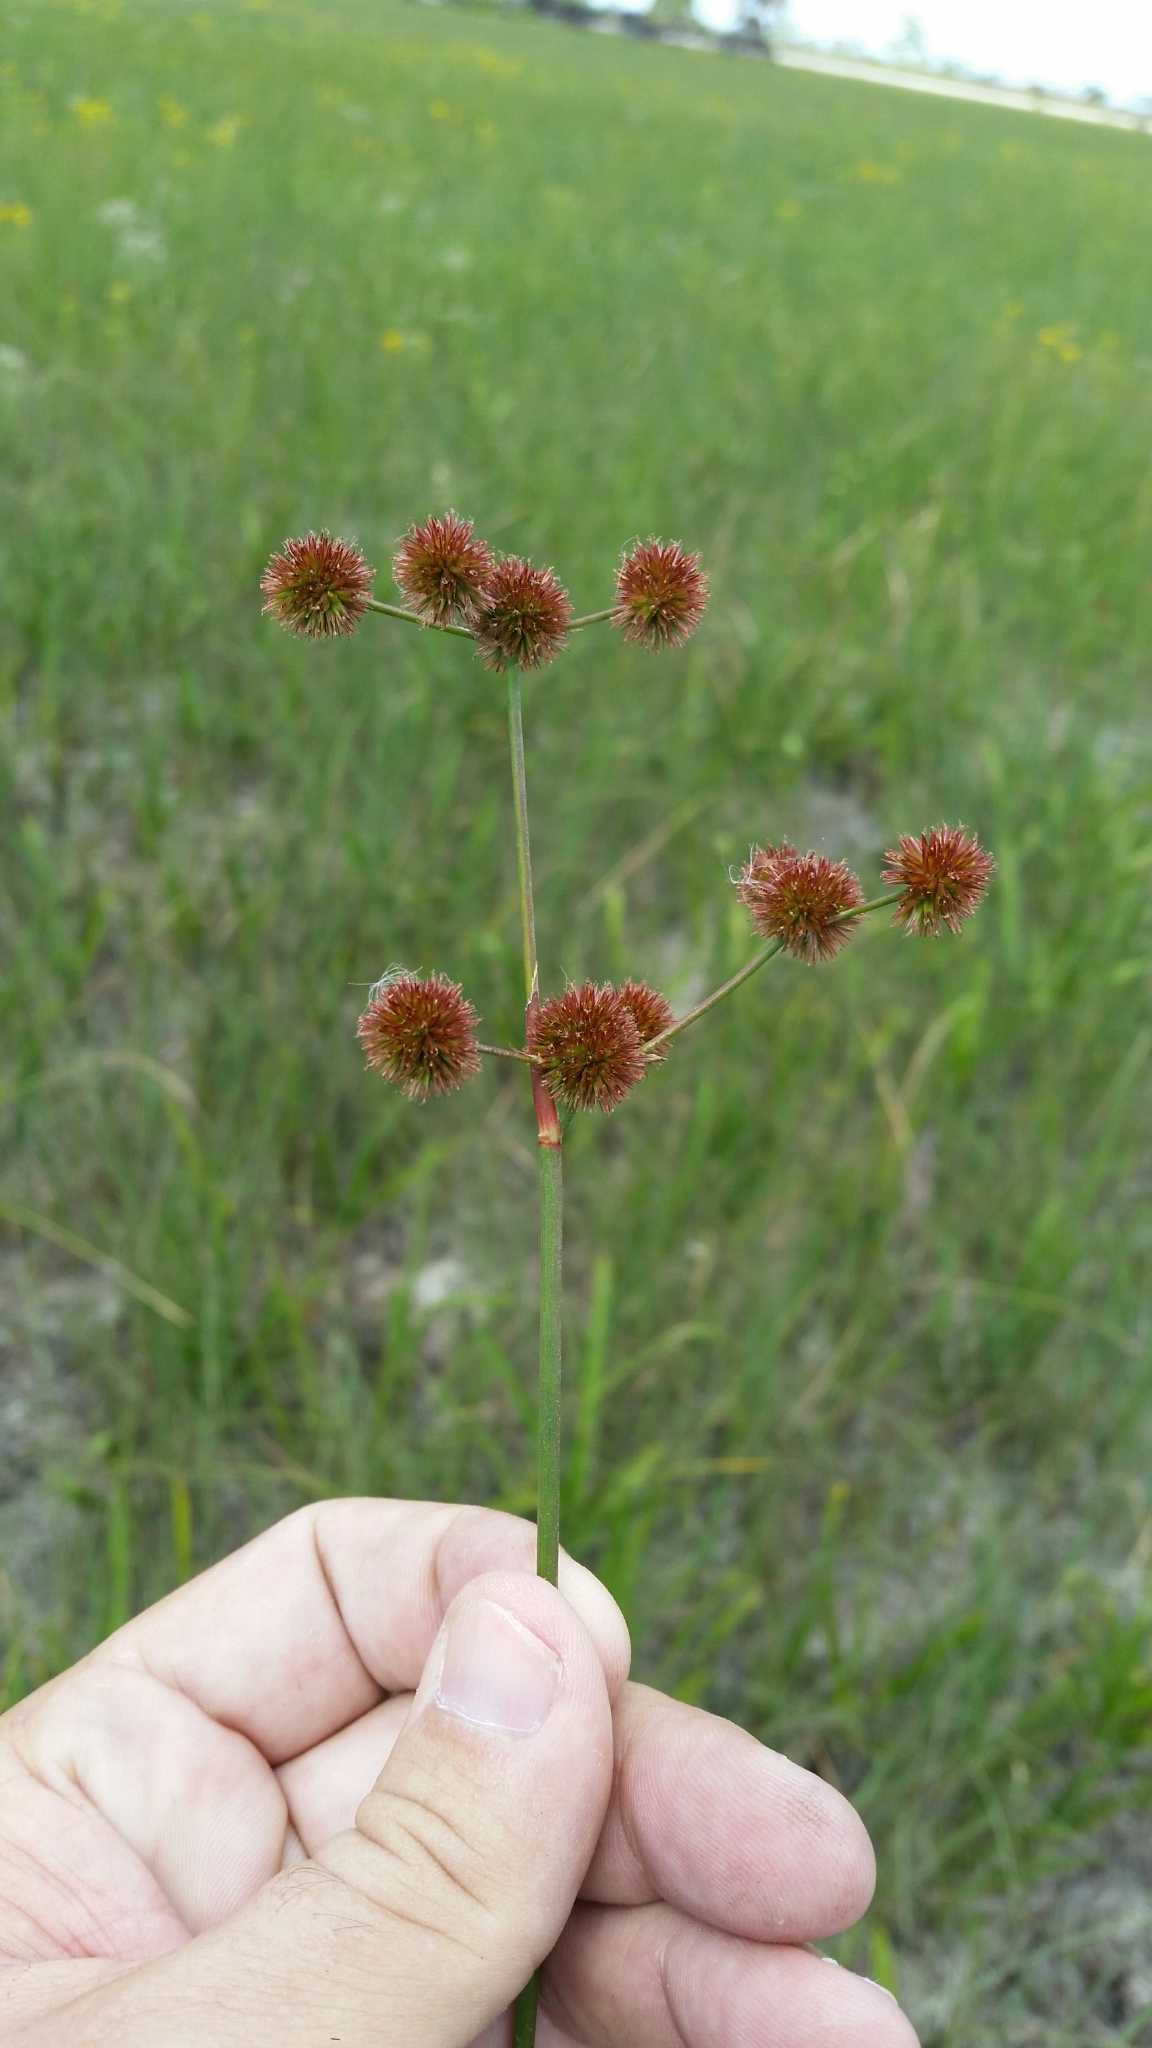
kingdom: Plantae
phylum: Tracheophyta
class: Liliopsida
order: Poales
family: Juncaceae
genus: Juncus
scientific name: Juncus megacephalus
